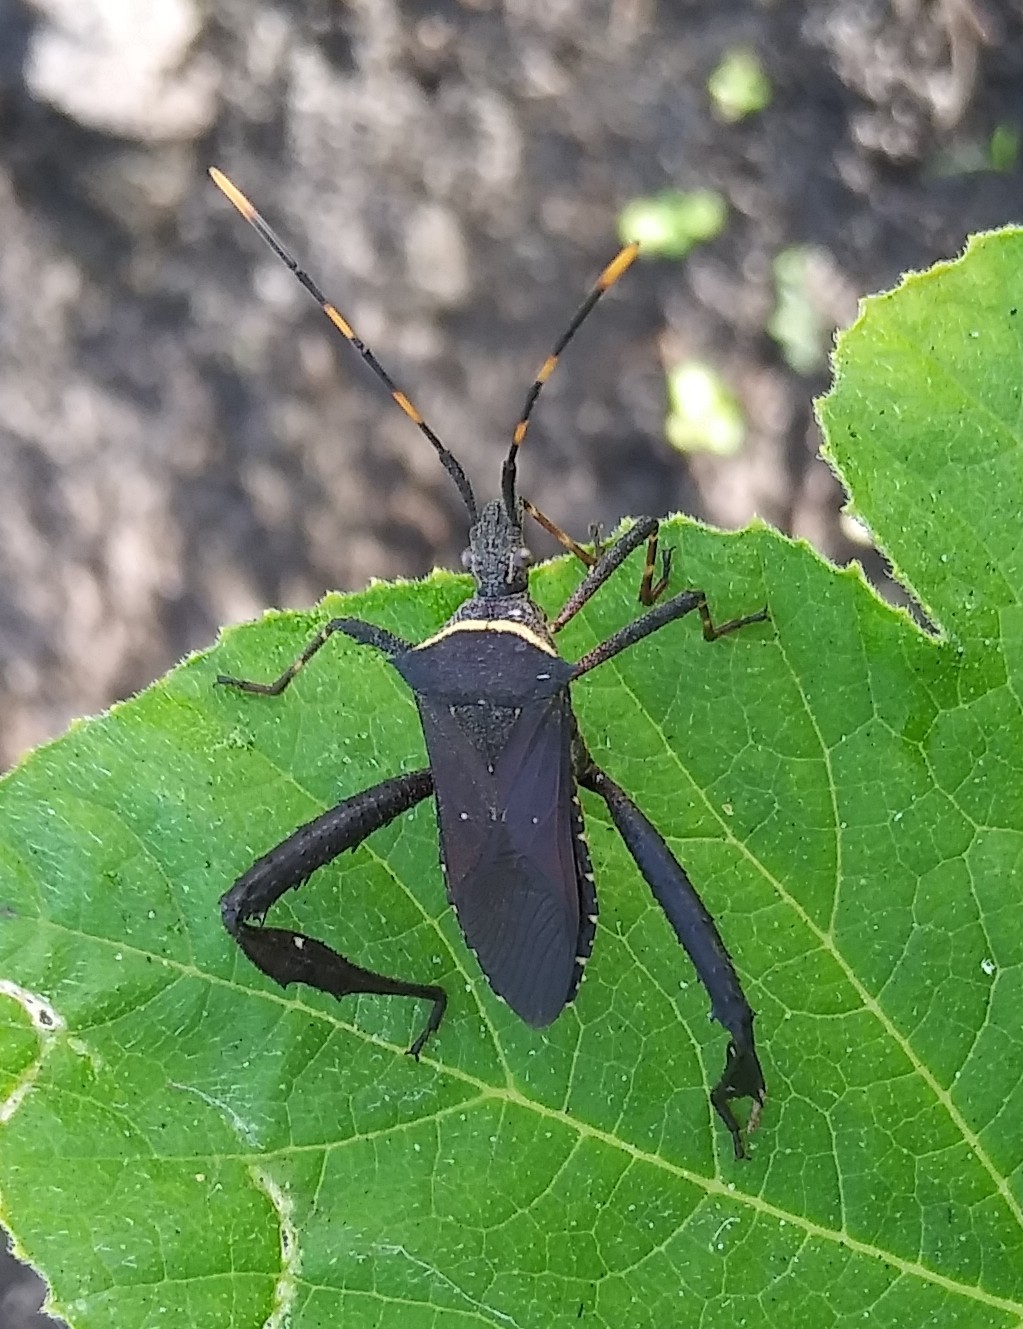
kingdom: Animalia
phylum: Arthropoda
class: Insecta
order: Hemiptera
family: Coreidae
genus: Leptoglossus
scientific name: Leptoglossus gonagra
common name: Citron bug
